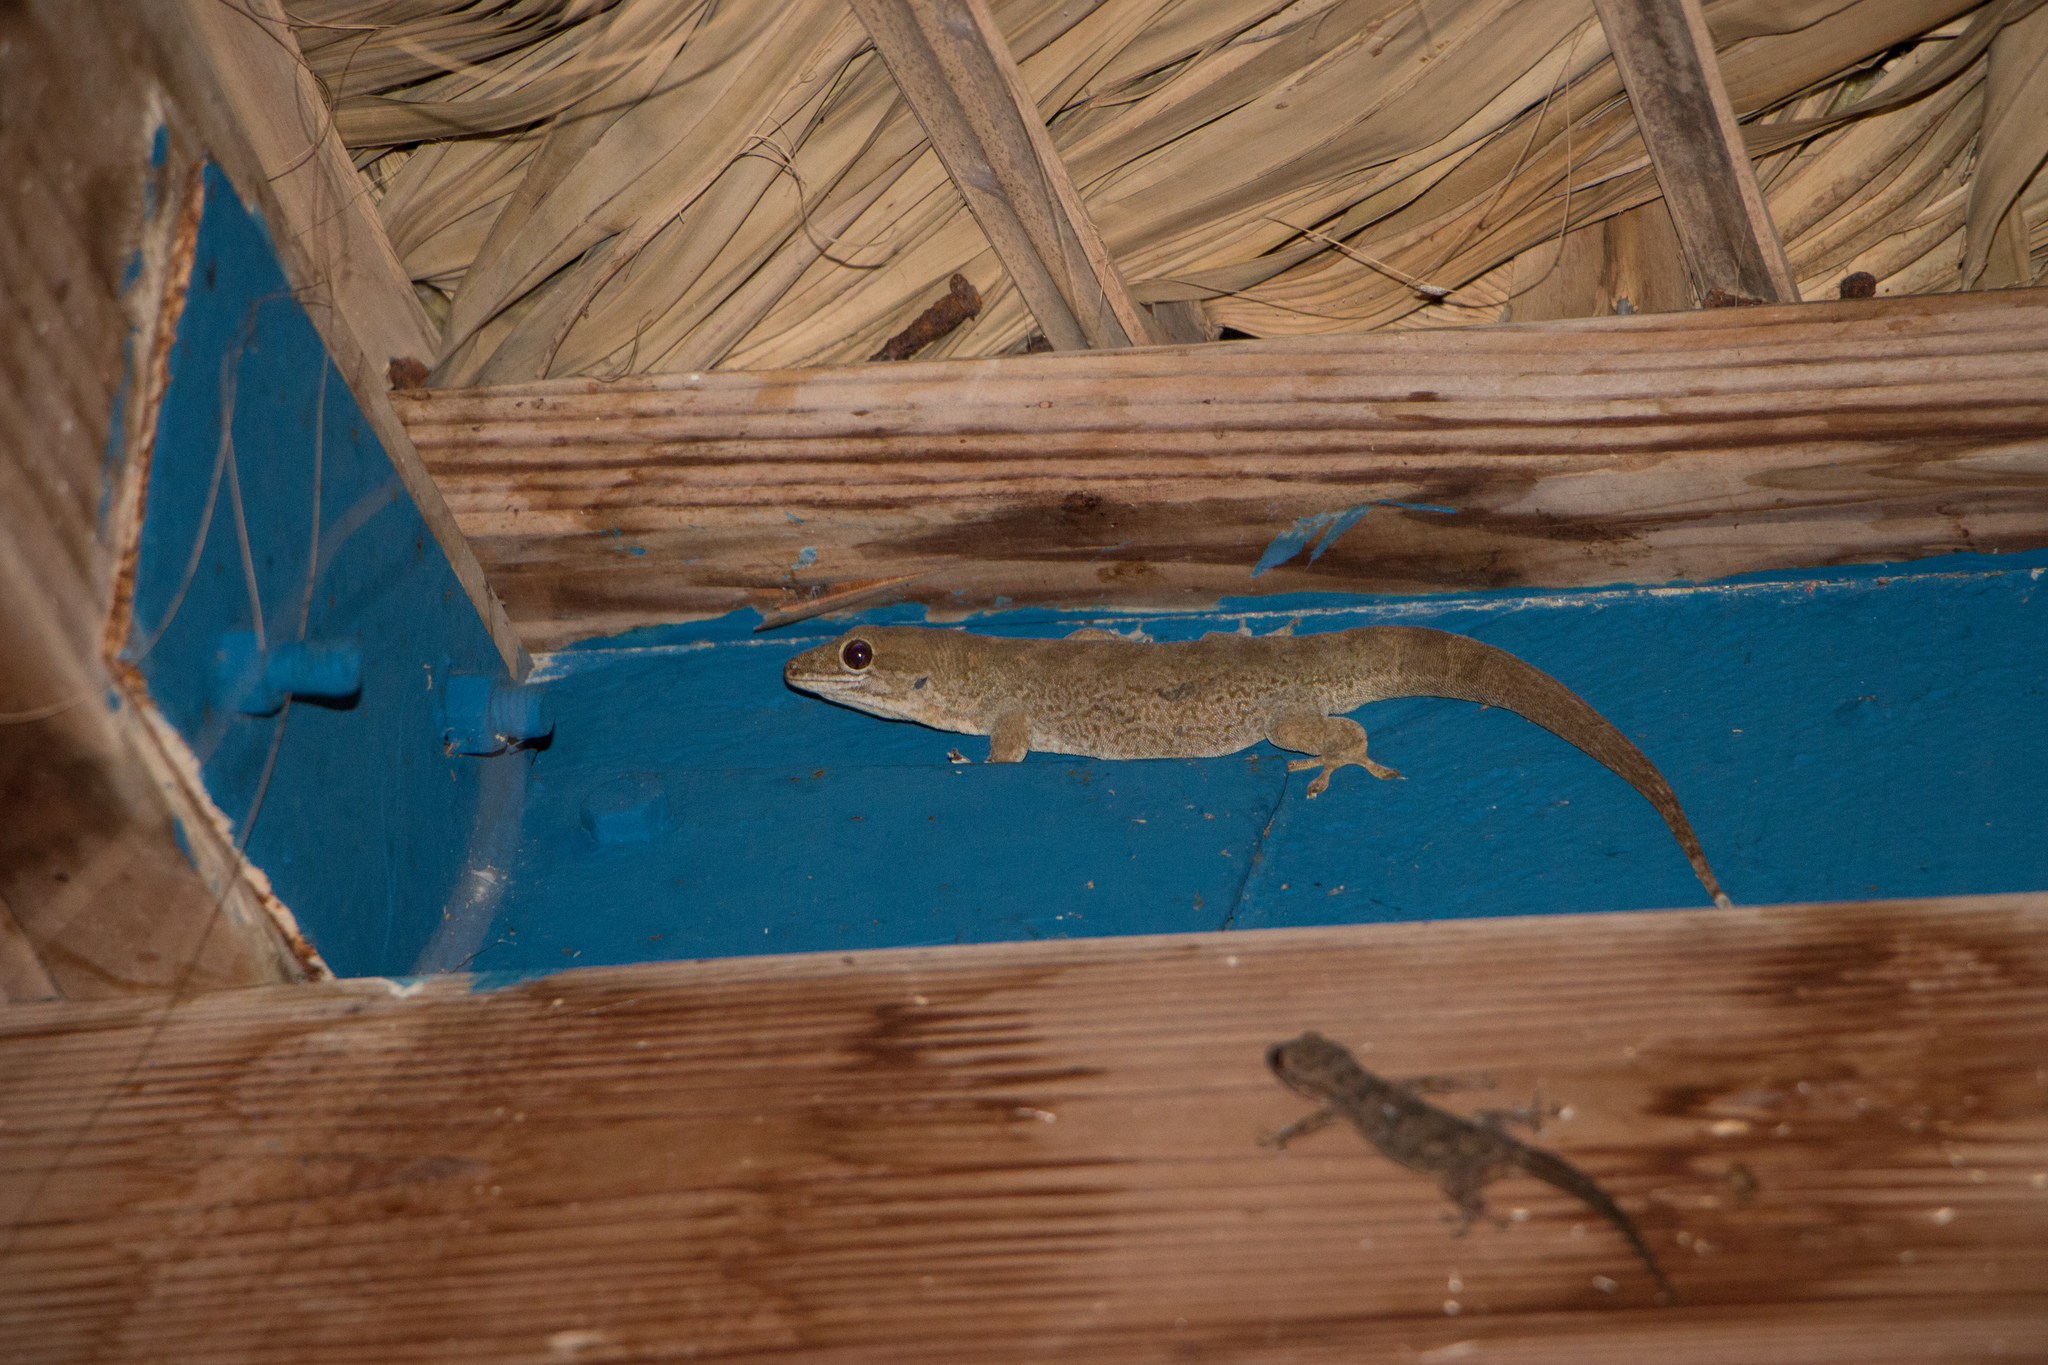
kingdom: Animalia
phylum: Chordata
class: Squamata
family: Sphaerodactylidae
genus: Aristelliger
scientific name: Aristelliger lar
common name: Spotted caribbean gecko
